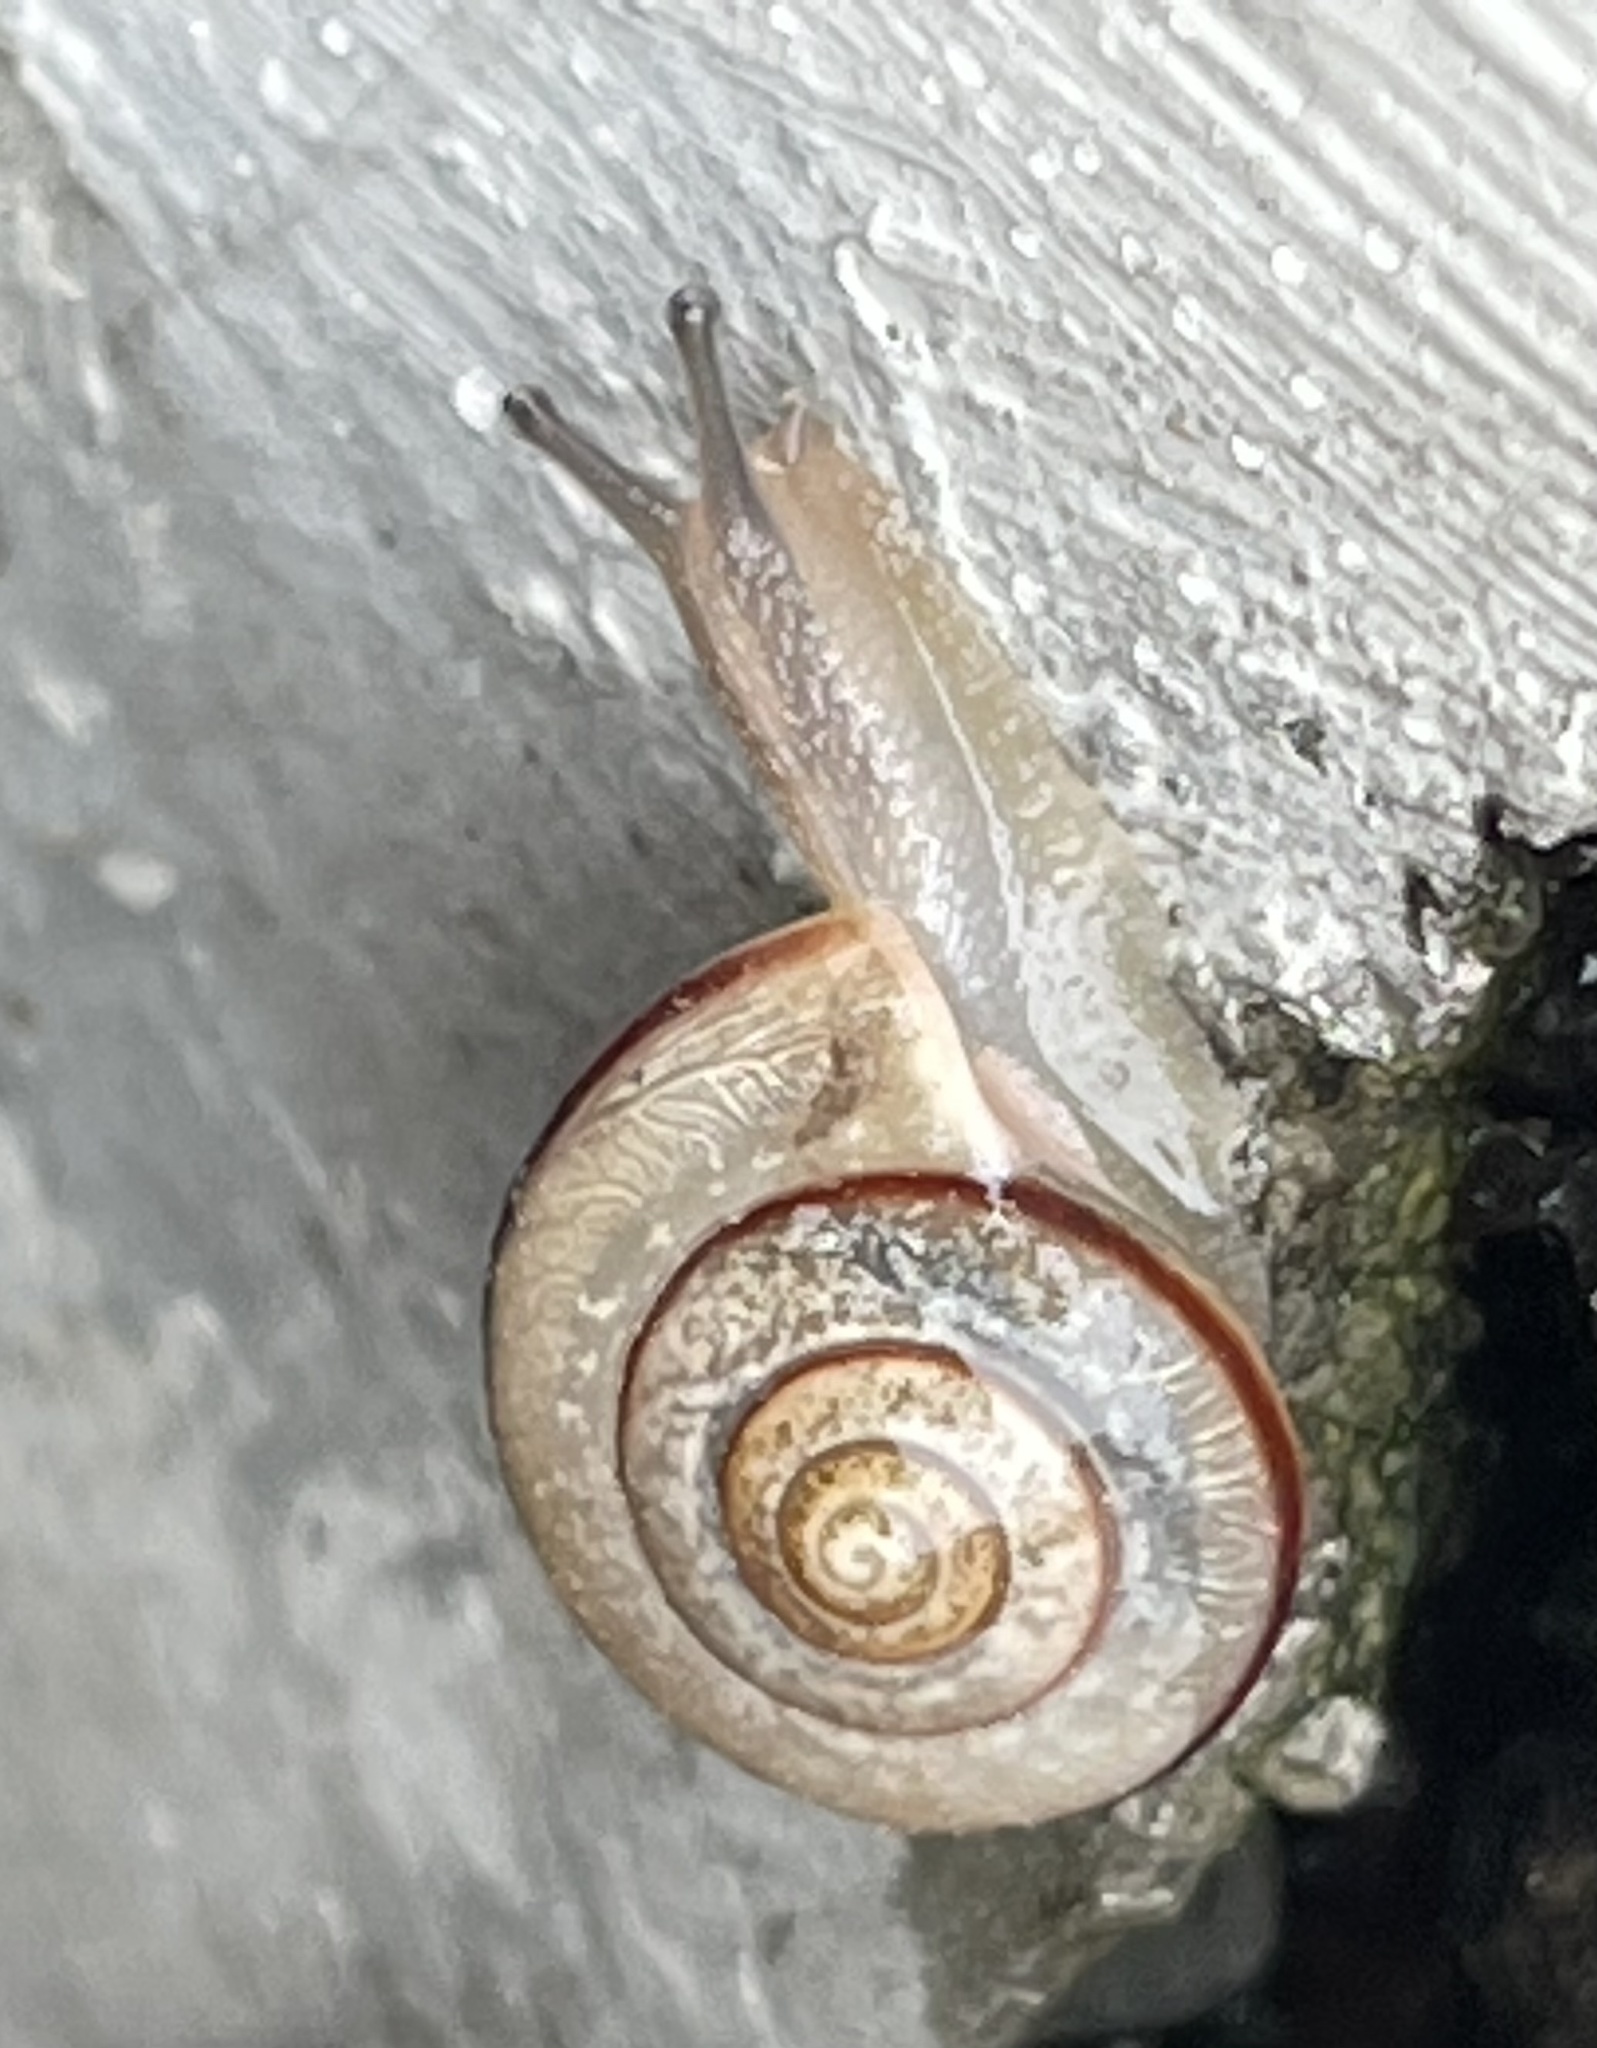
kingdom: Animalia
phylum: Mollusca
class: Gastropoda
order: Stylommatophora
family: Camaenidae
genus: Bradybaena
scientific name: Bradybaena similaris
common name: Asian trampsnail
